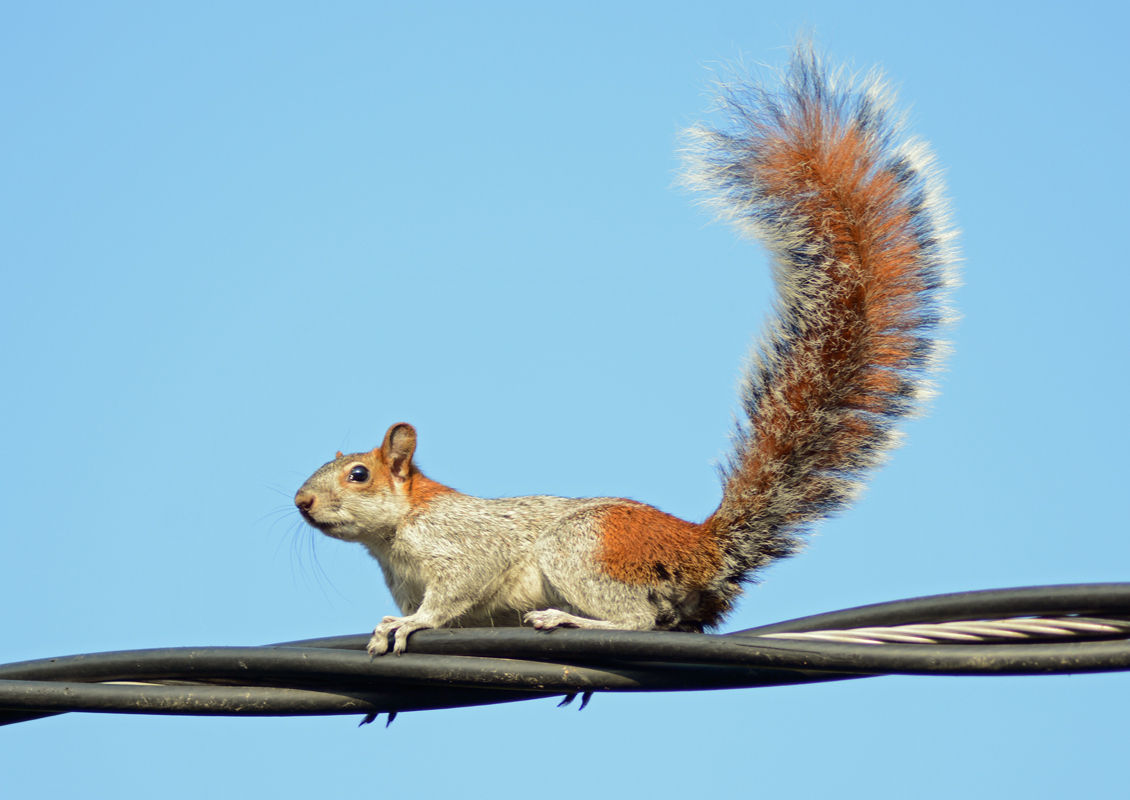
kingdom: Animalia
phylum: Chordata
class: Mammalia
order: Rodentia
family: Sciuridae
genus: Sciurus
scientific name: Sciurus aureogaster
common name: Red-bellied squirrel
